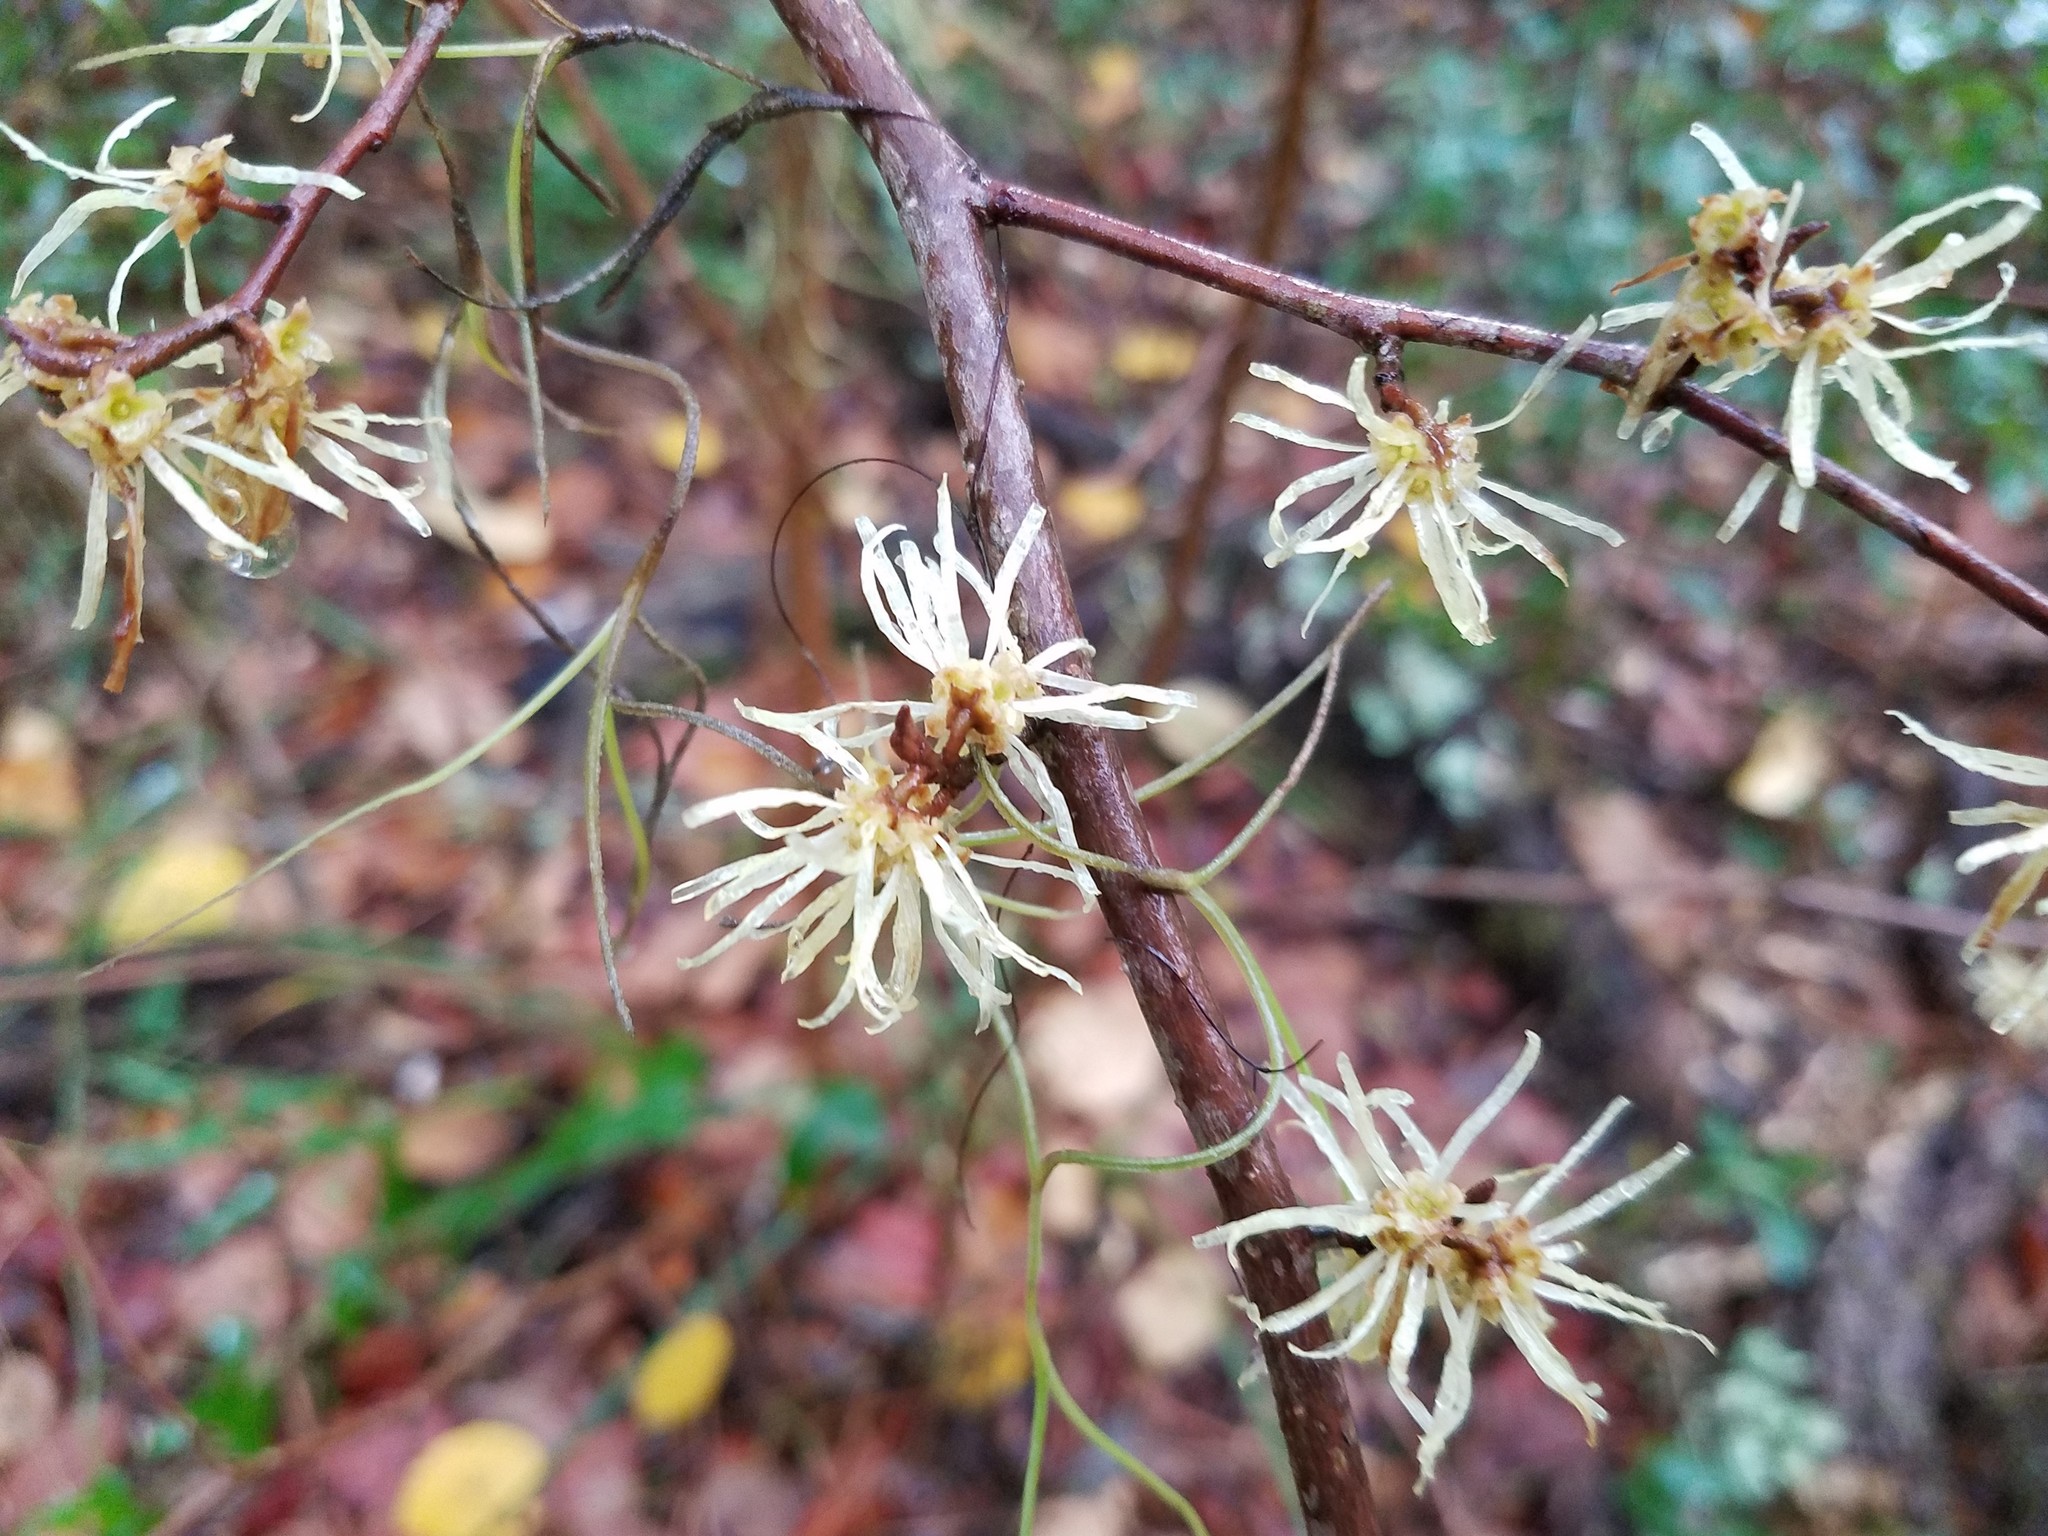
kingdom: Plantae
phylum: Tracheophyta
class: Magnoliopsida
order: Saxifragales
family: Hamamelidaceae
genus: Hamamelis
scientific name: Hamamelis virginiana
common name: Witch-hazel
